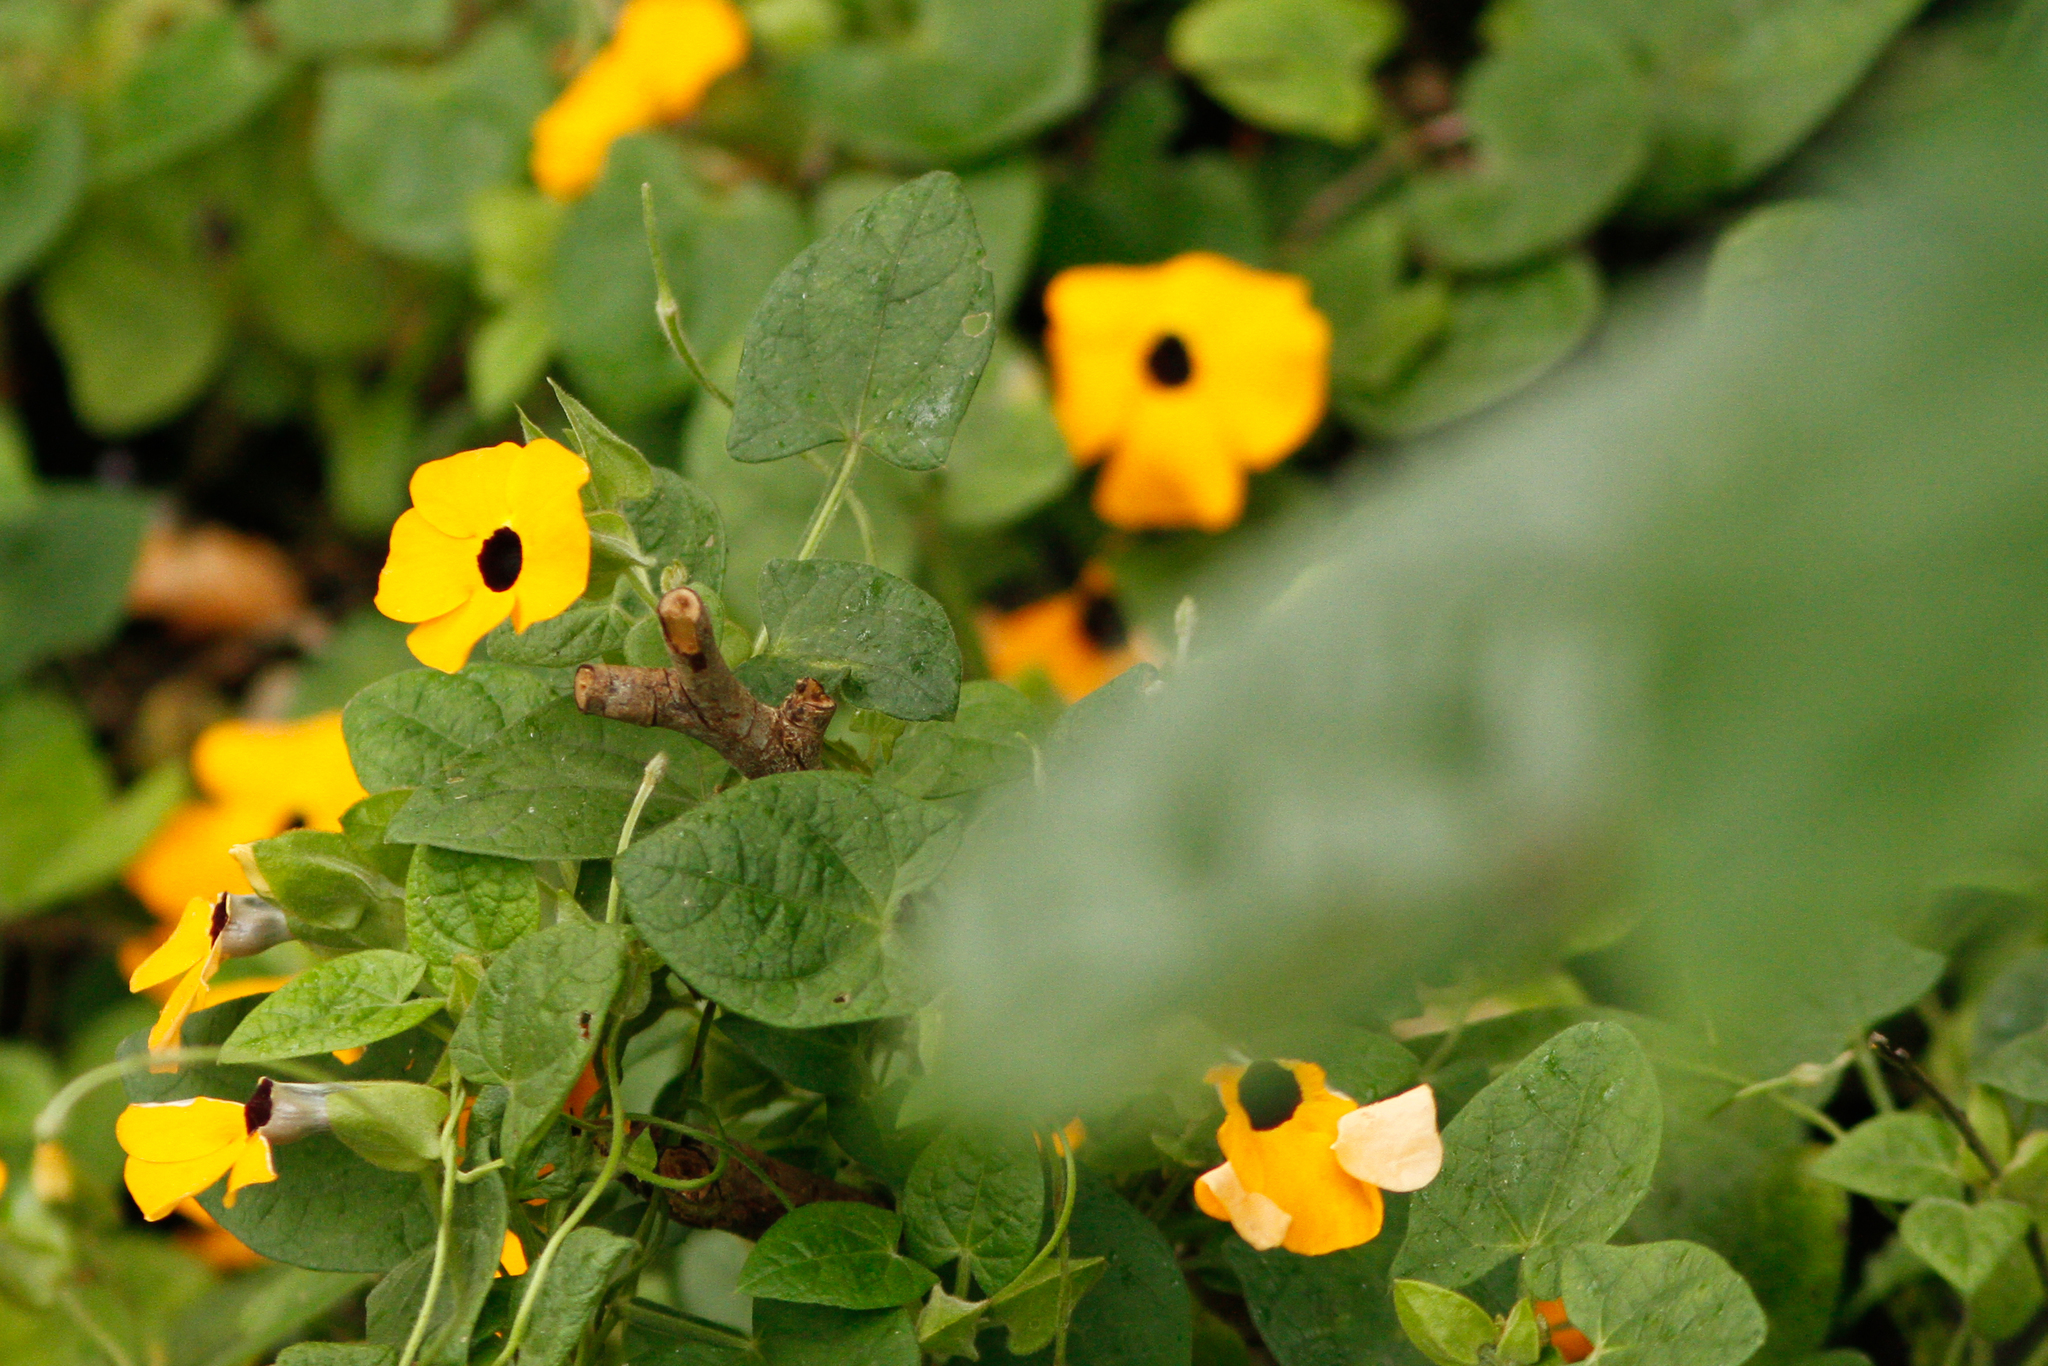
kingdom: Plantae
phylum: Tracheophyta
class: Magnoliopsida
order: Lamiales
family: Acanthaceae
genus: Thunbergia
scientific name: Thunbergia alata
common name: Blackeyed susan vine
